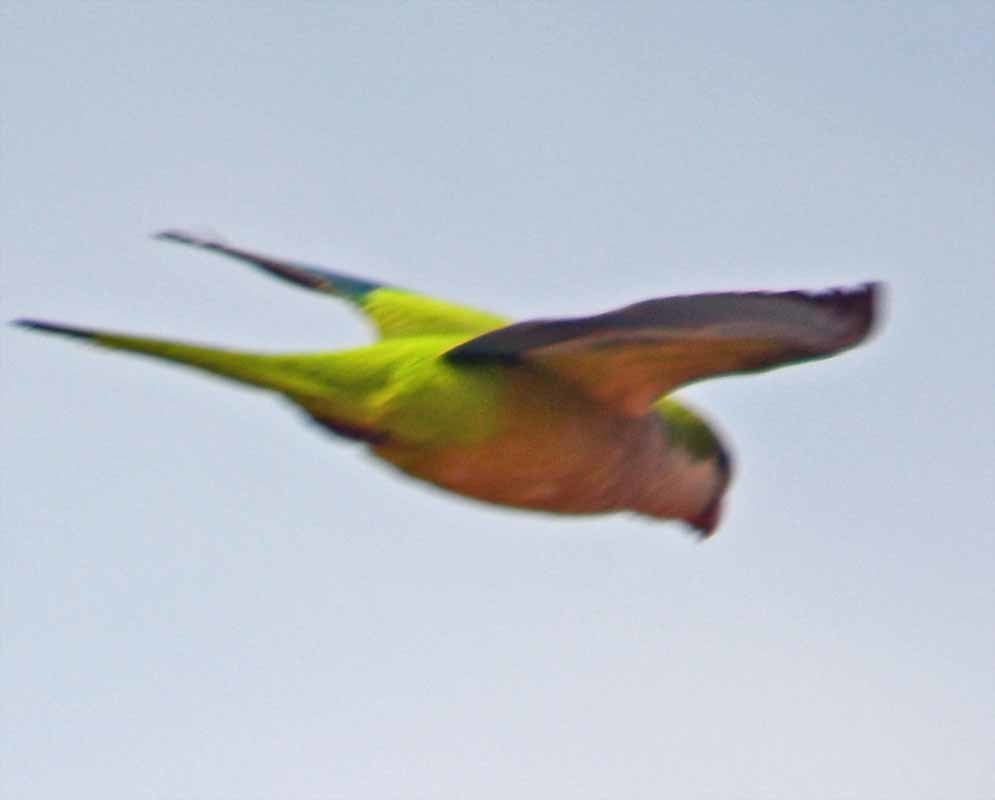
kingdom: Animalia
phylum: Chordata
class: Aves
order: Psittaciformes
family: Psittacidae
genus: Myiopsitta
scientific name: Myiopsitta monachus
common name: Monk parakeet
